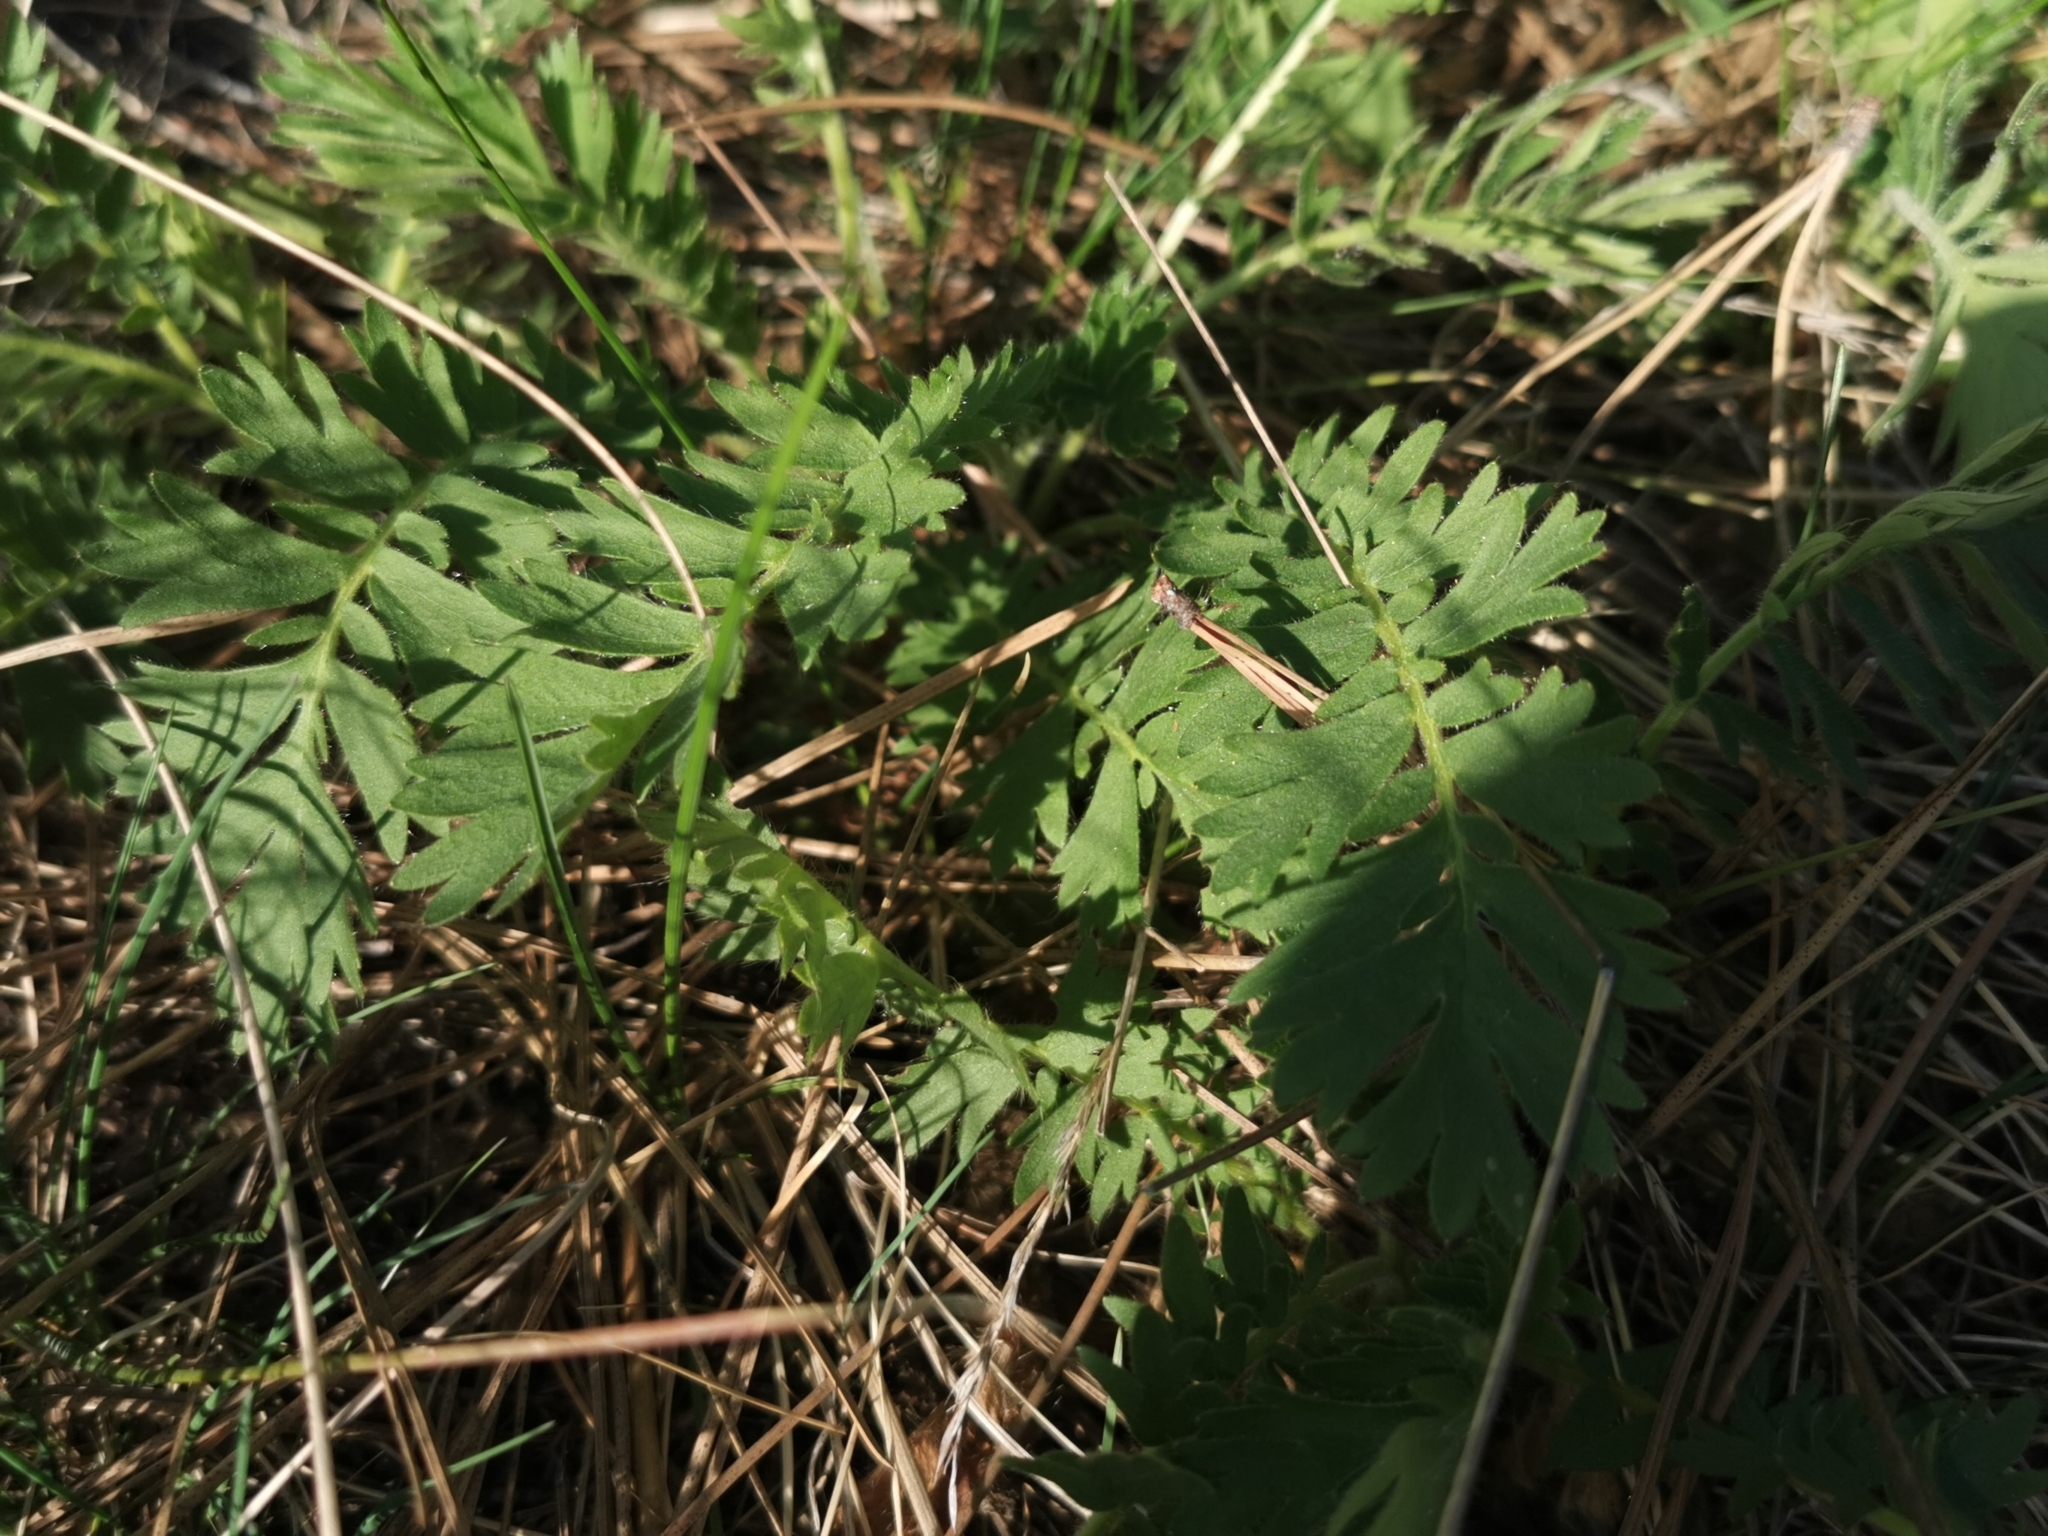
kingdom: Plantae
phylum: Tracheophyta
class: Magnoliopsida
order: Rosales
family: Rosaceae
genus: Geum
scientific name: Geum triflorum
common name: Old man's whiskers
